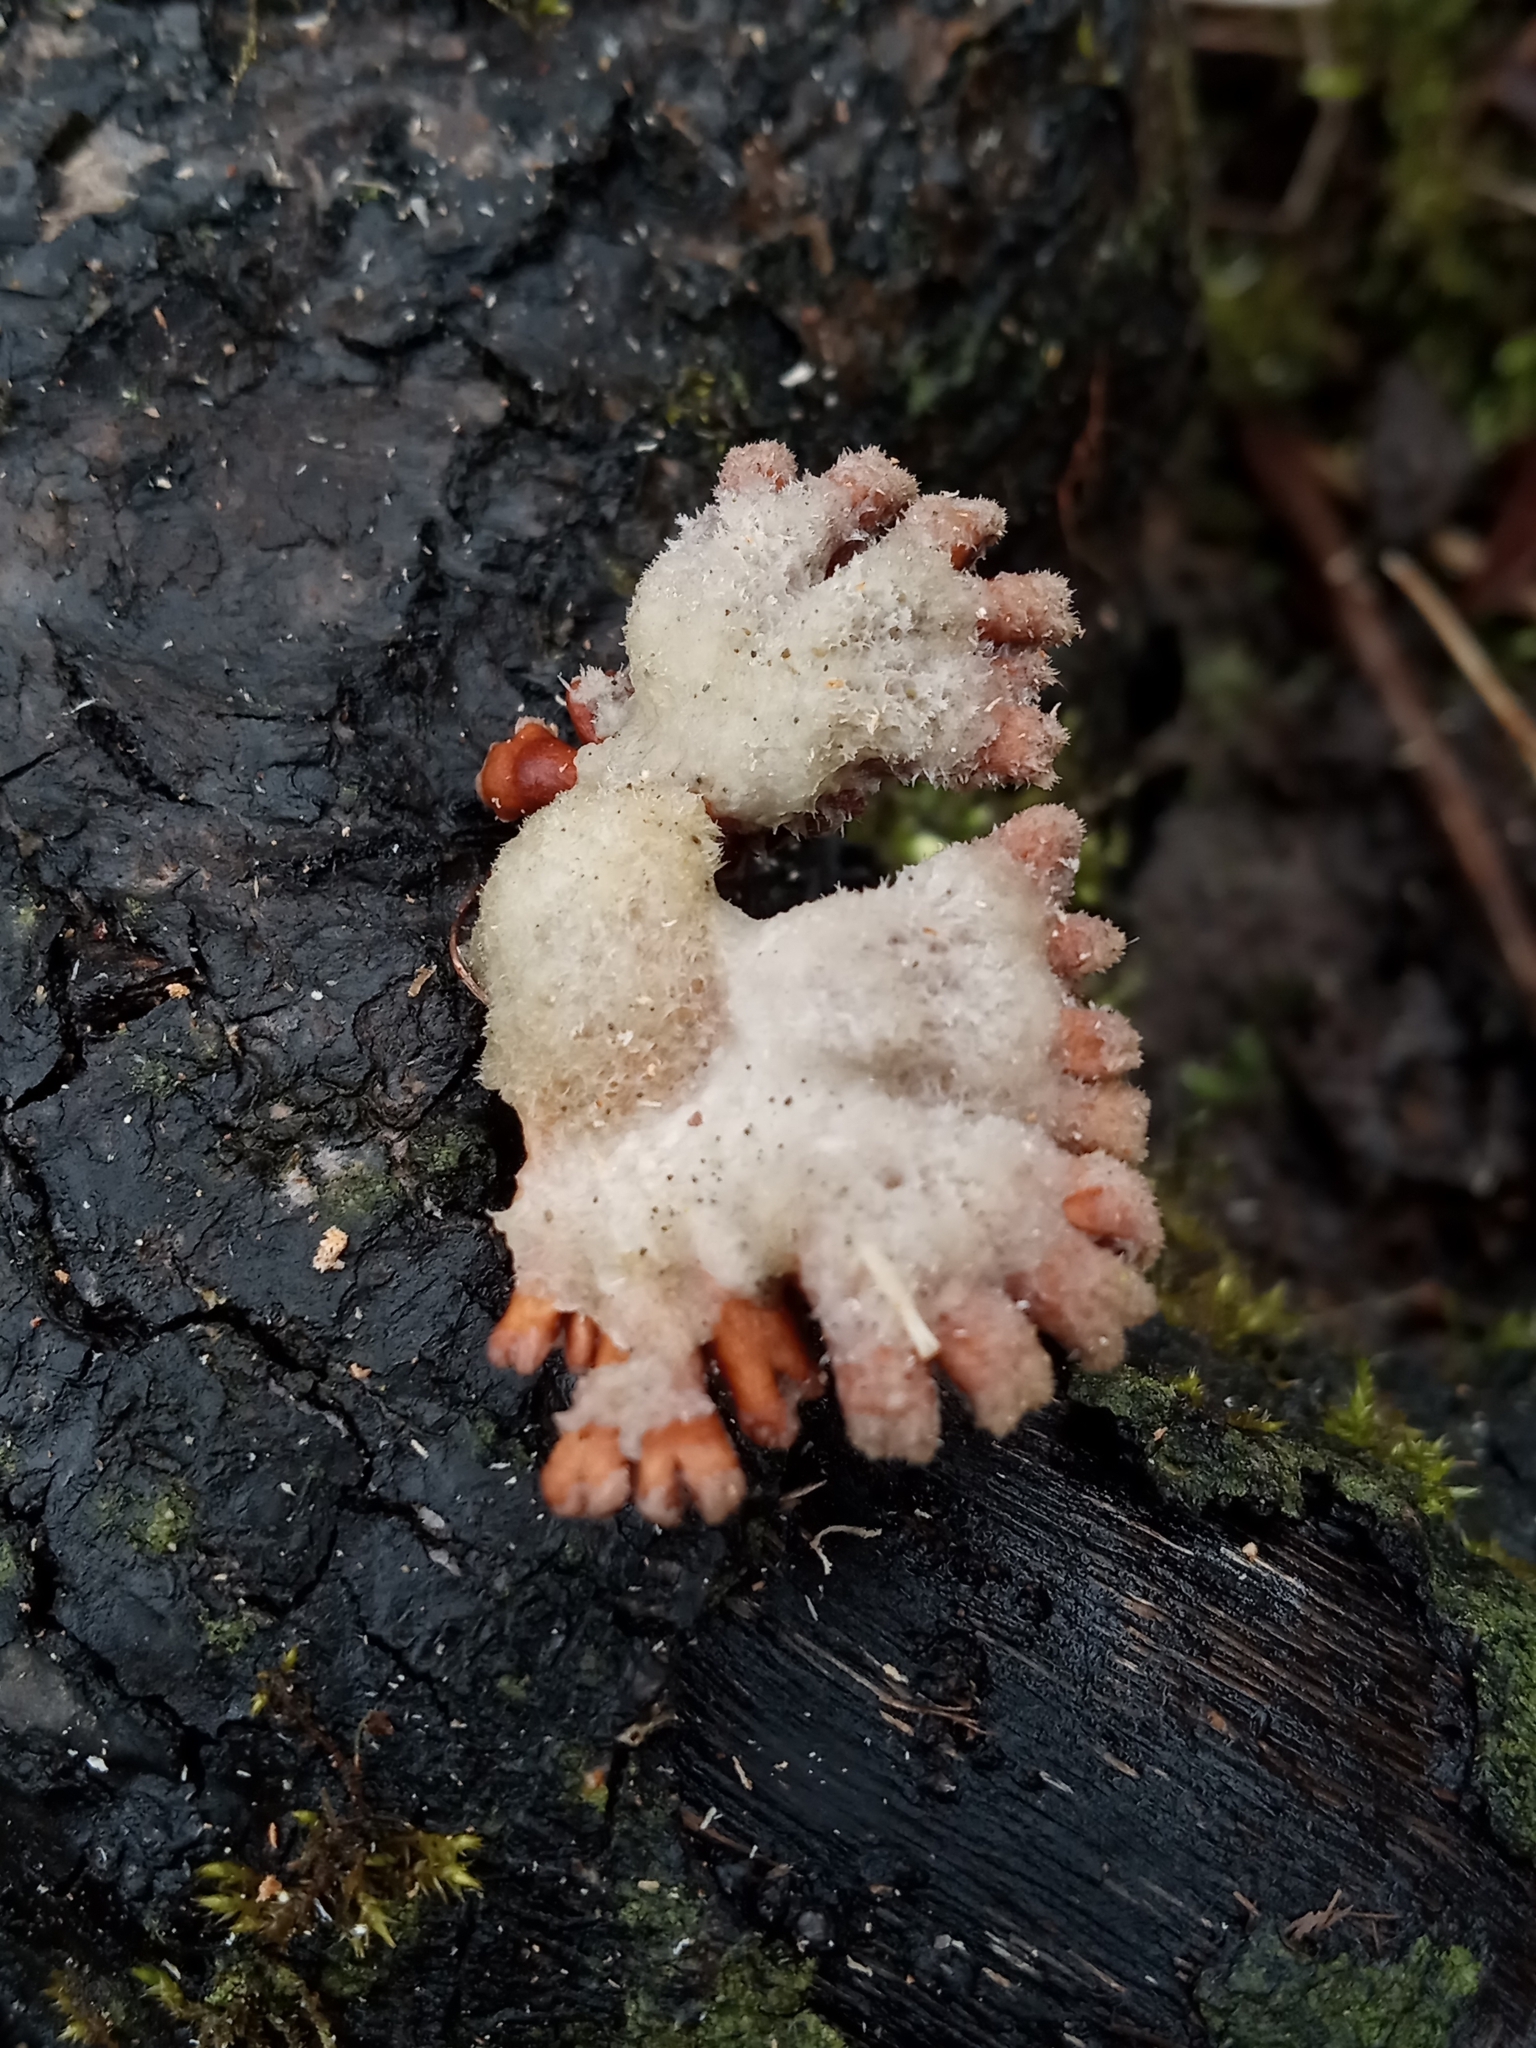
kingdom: Fungi
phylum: Basidiomycota
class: Agaricomycetes
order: Agaricales
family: Schizophyllaceae
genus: Schizophyllum
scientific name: Schizophyllum commune
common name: Common porecrust
